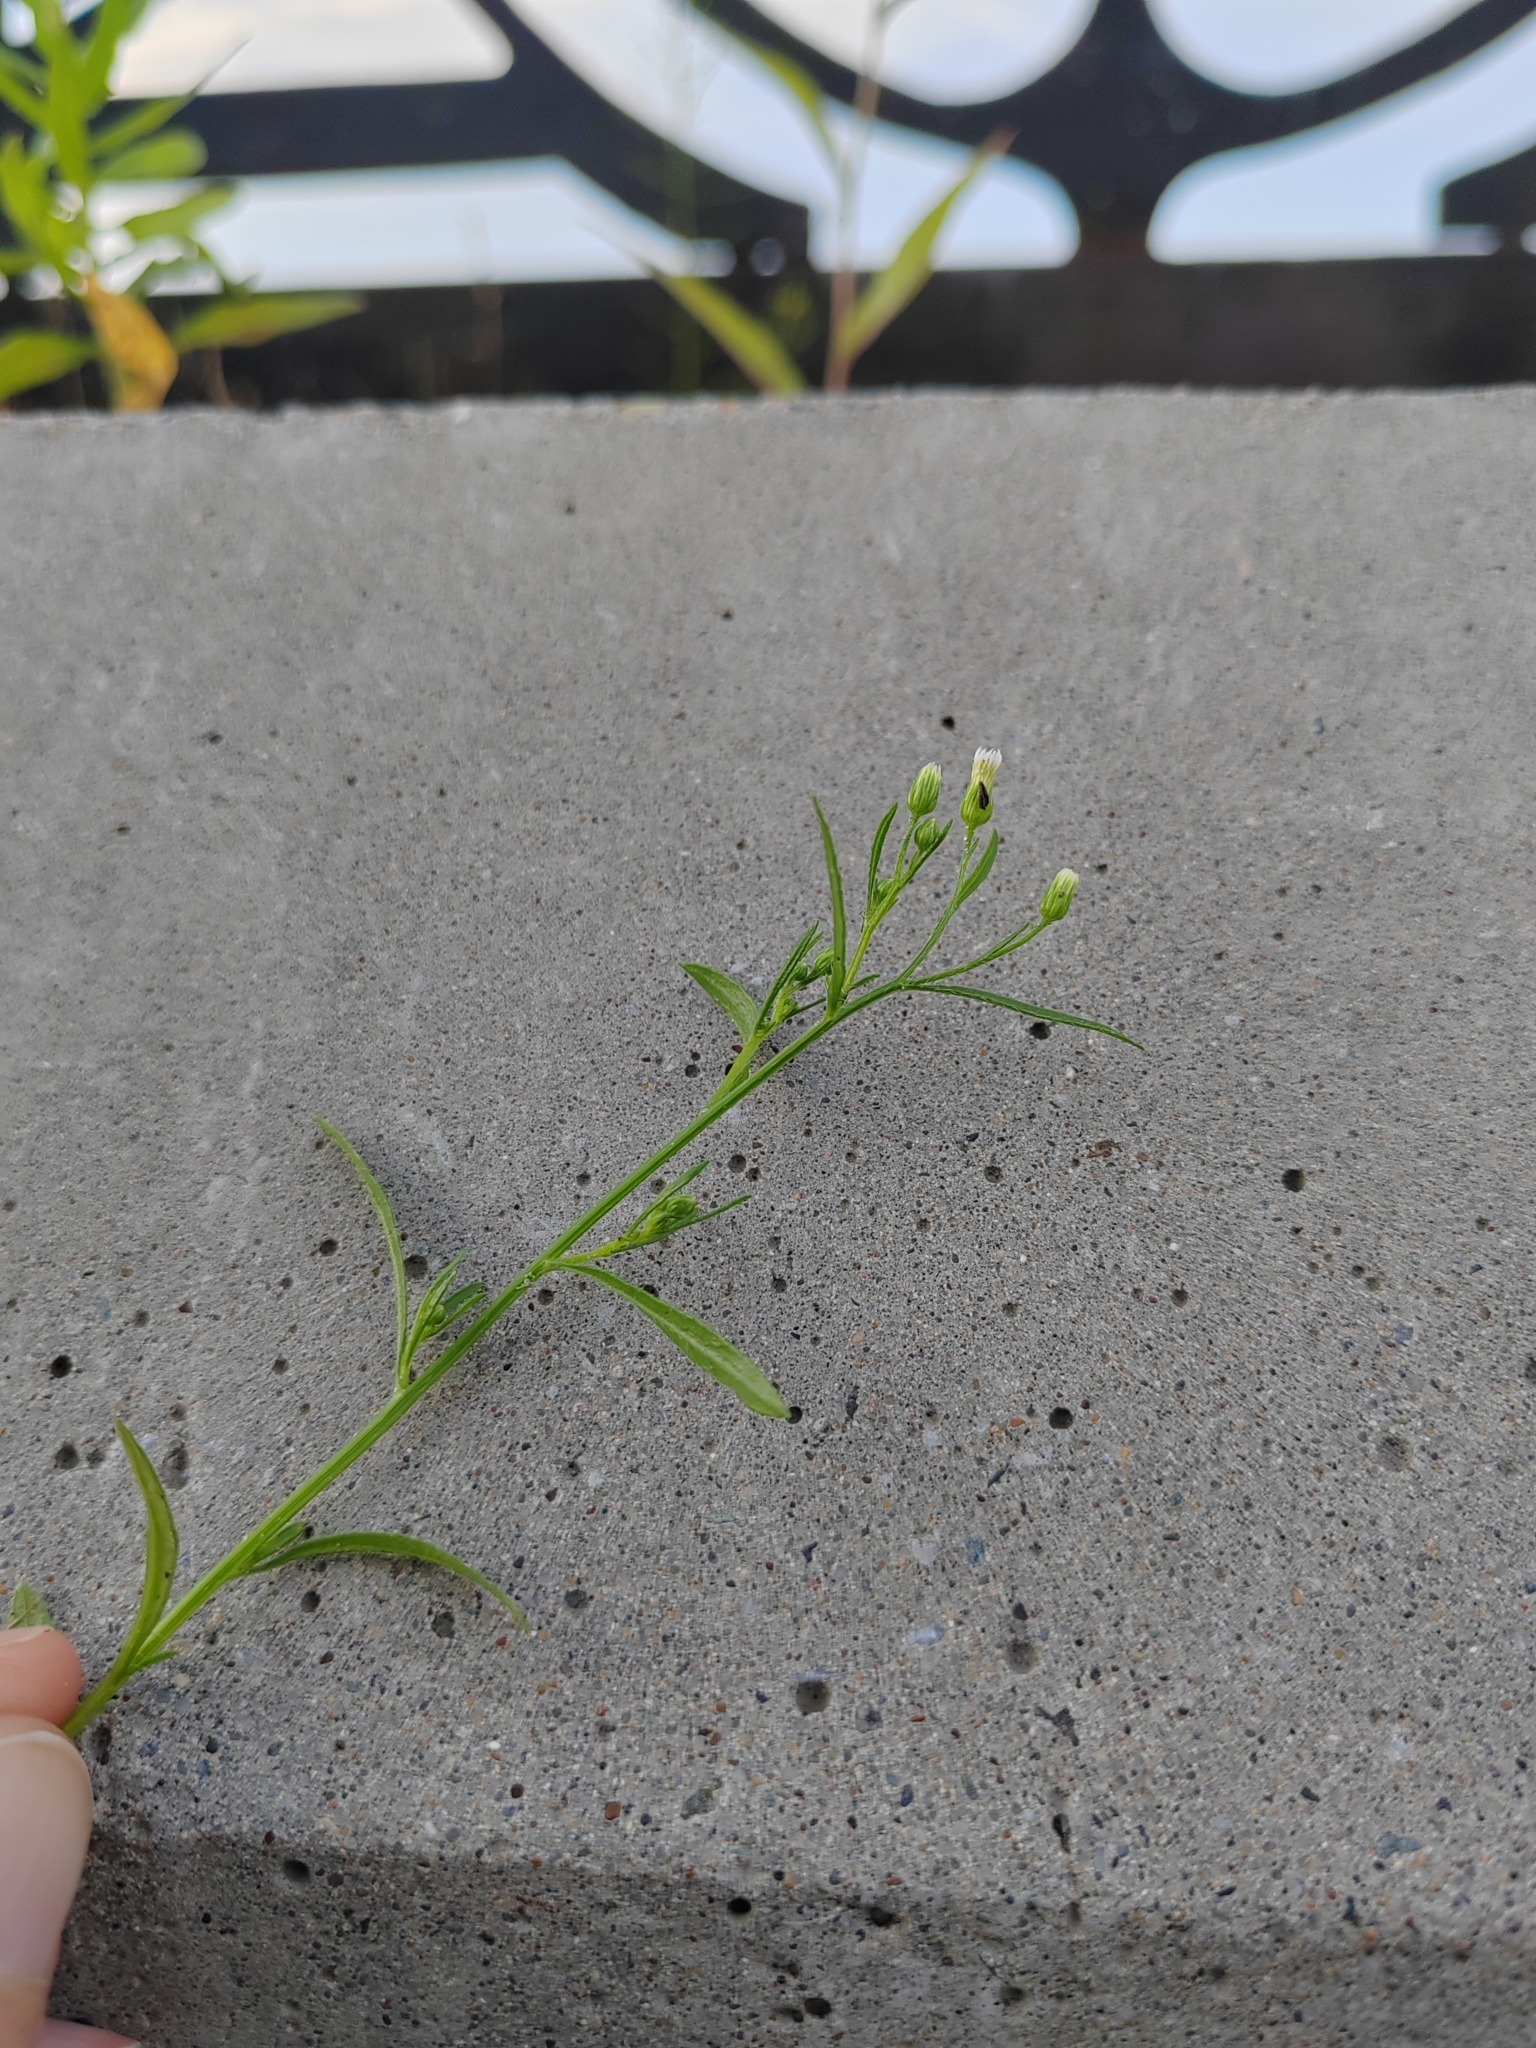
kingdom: Plantae
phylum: Tracheophyta
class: Magnoliopsida
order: Asterales
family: Asteraceae
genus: Erigeron
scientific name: Erigeron canadensis
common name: Canadian fleabane
